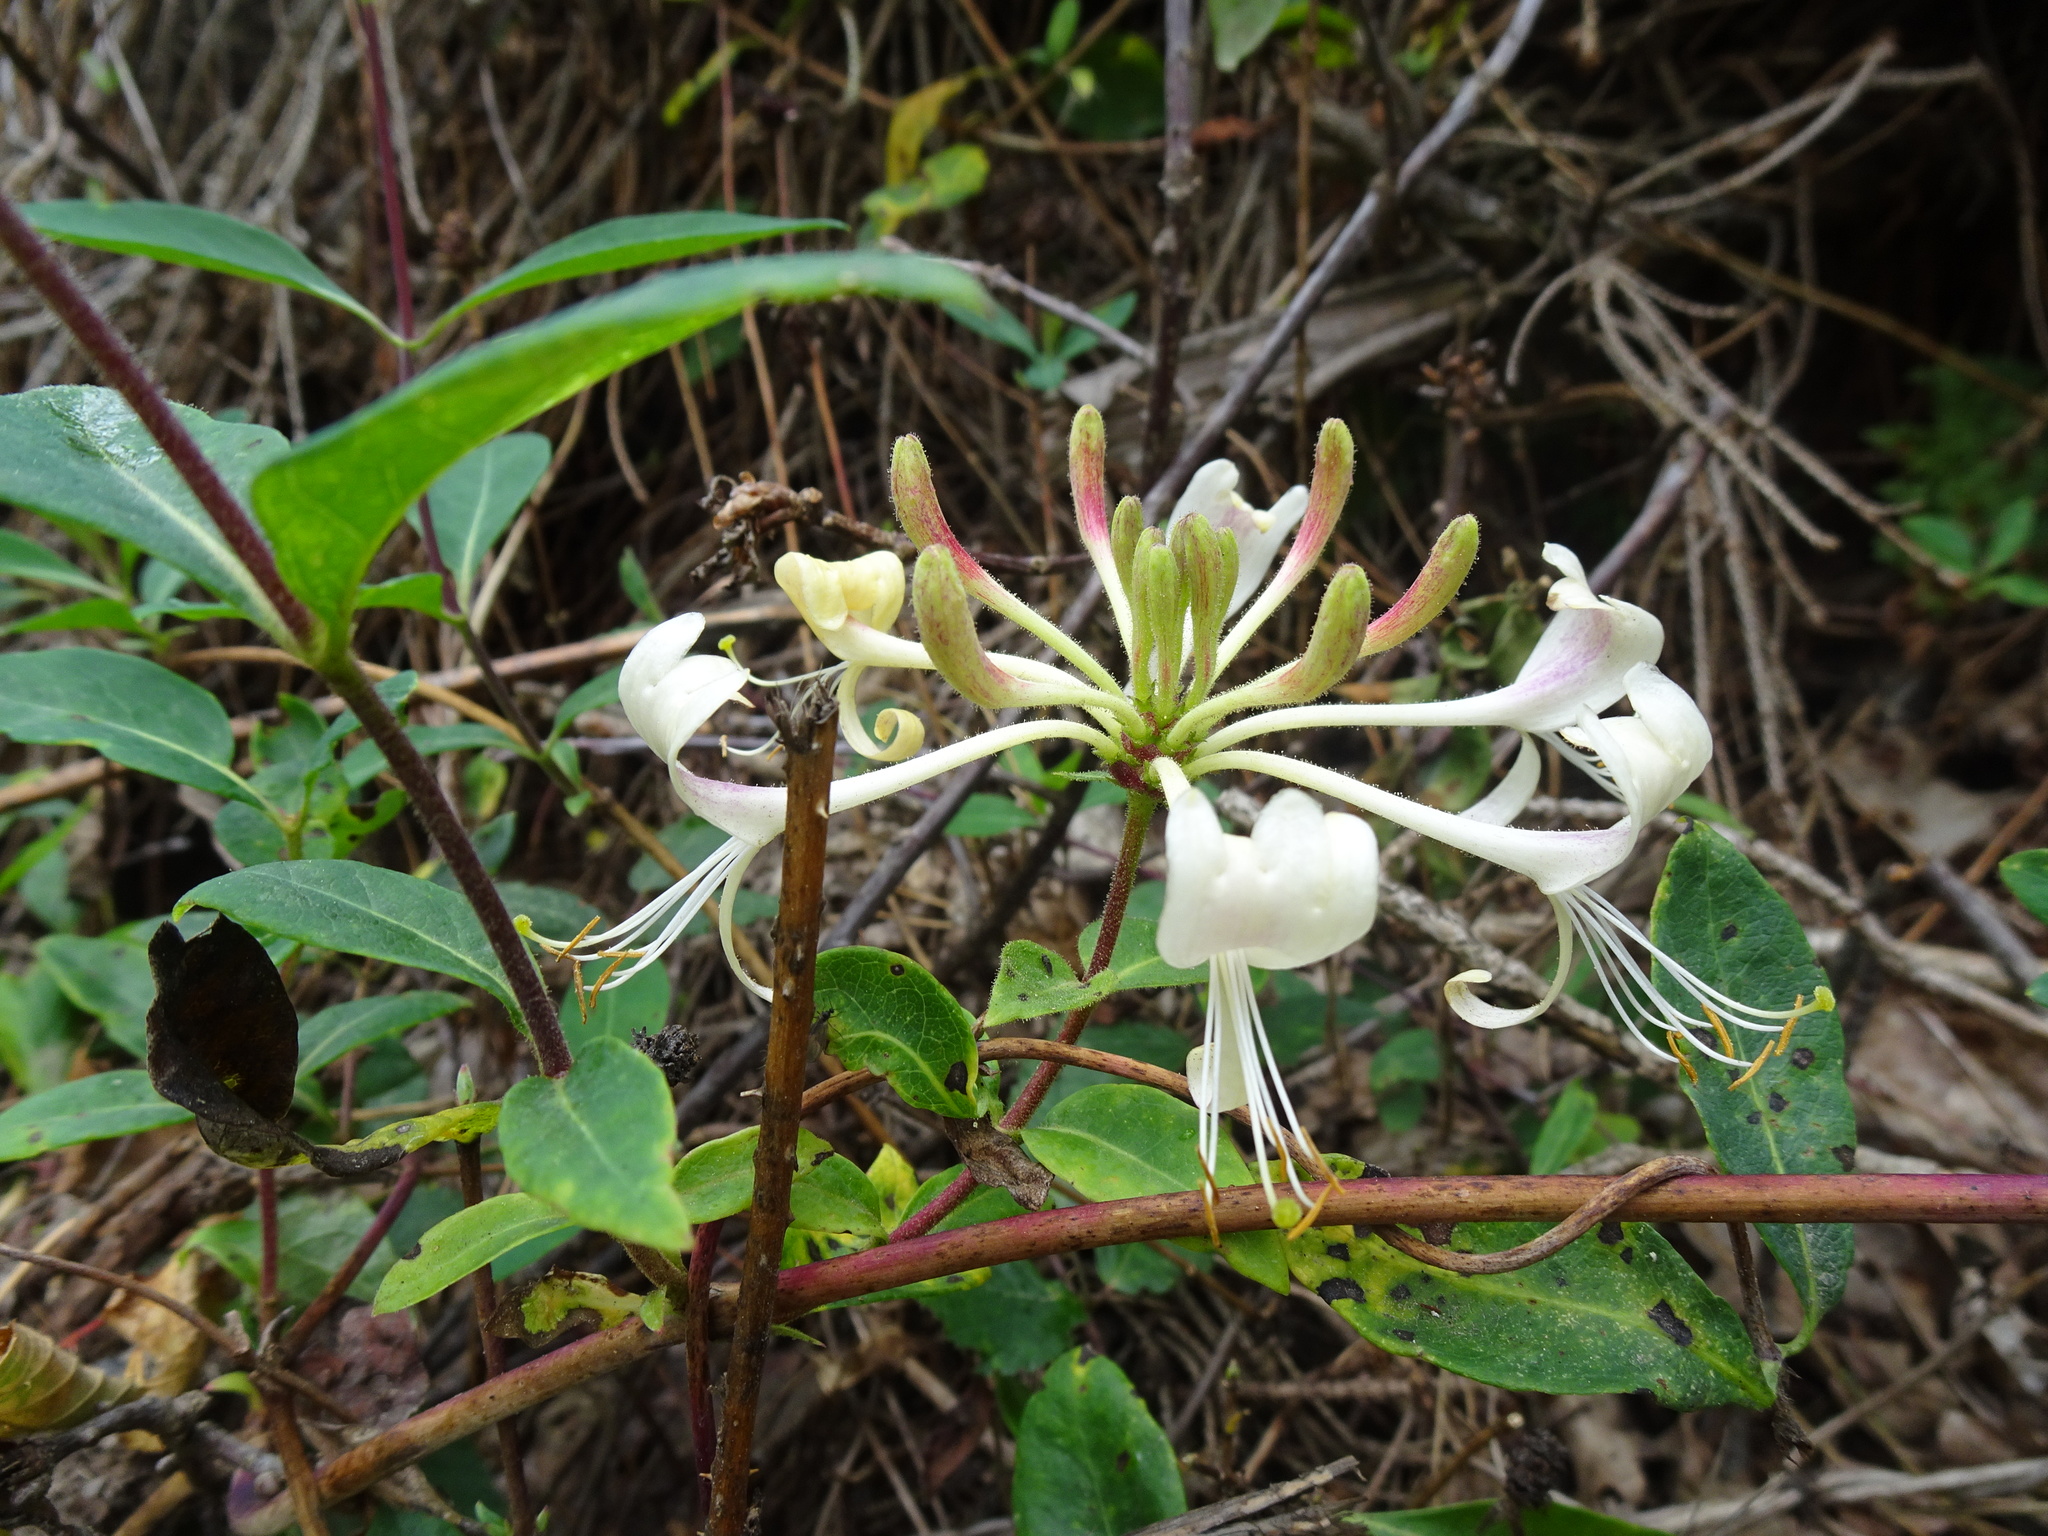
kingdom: Plantae
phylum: Tracheophyta
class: Magnoliopsida
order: Dipsacales
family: Caprifoliaceae
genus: Lonicera
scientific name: Lonicera periclymenum
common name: European honeysuckle
